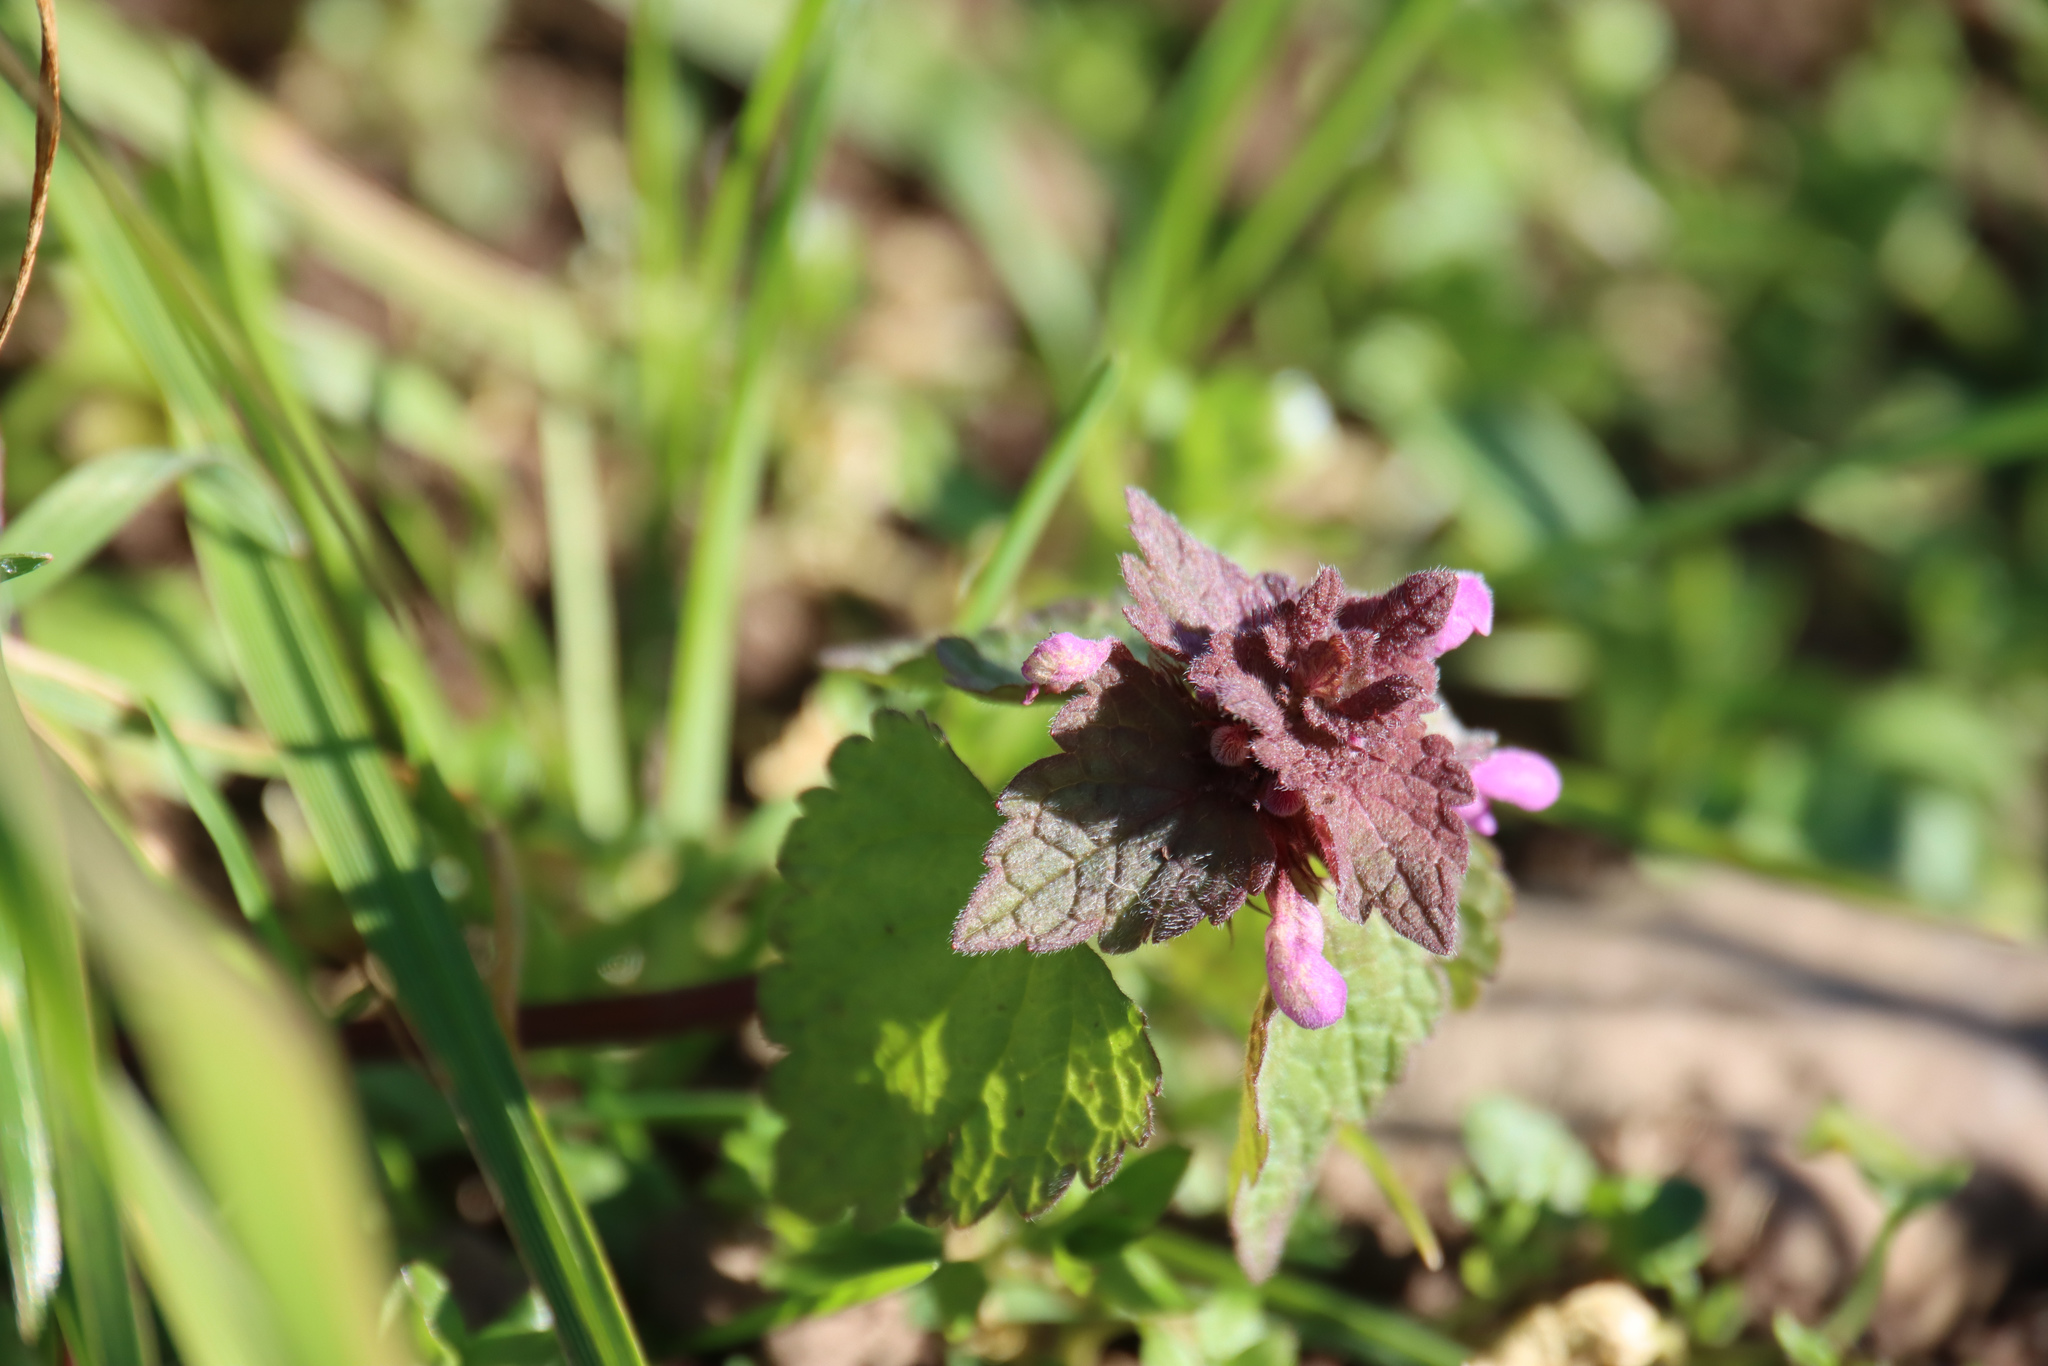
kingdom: Plantae
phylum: Tracheophyta
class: Magnoliopsida
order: Lamiales
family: Lamiaceae
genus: Lamium
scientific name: Lamium purpureum
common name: Red dead-nettle
